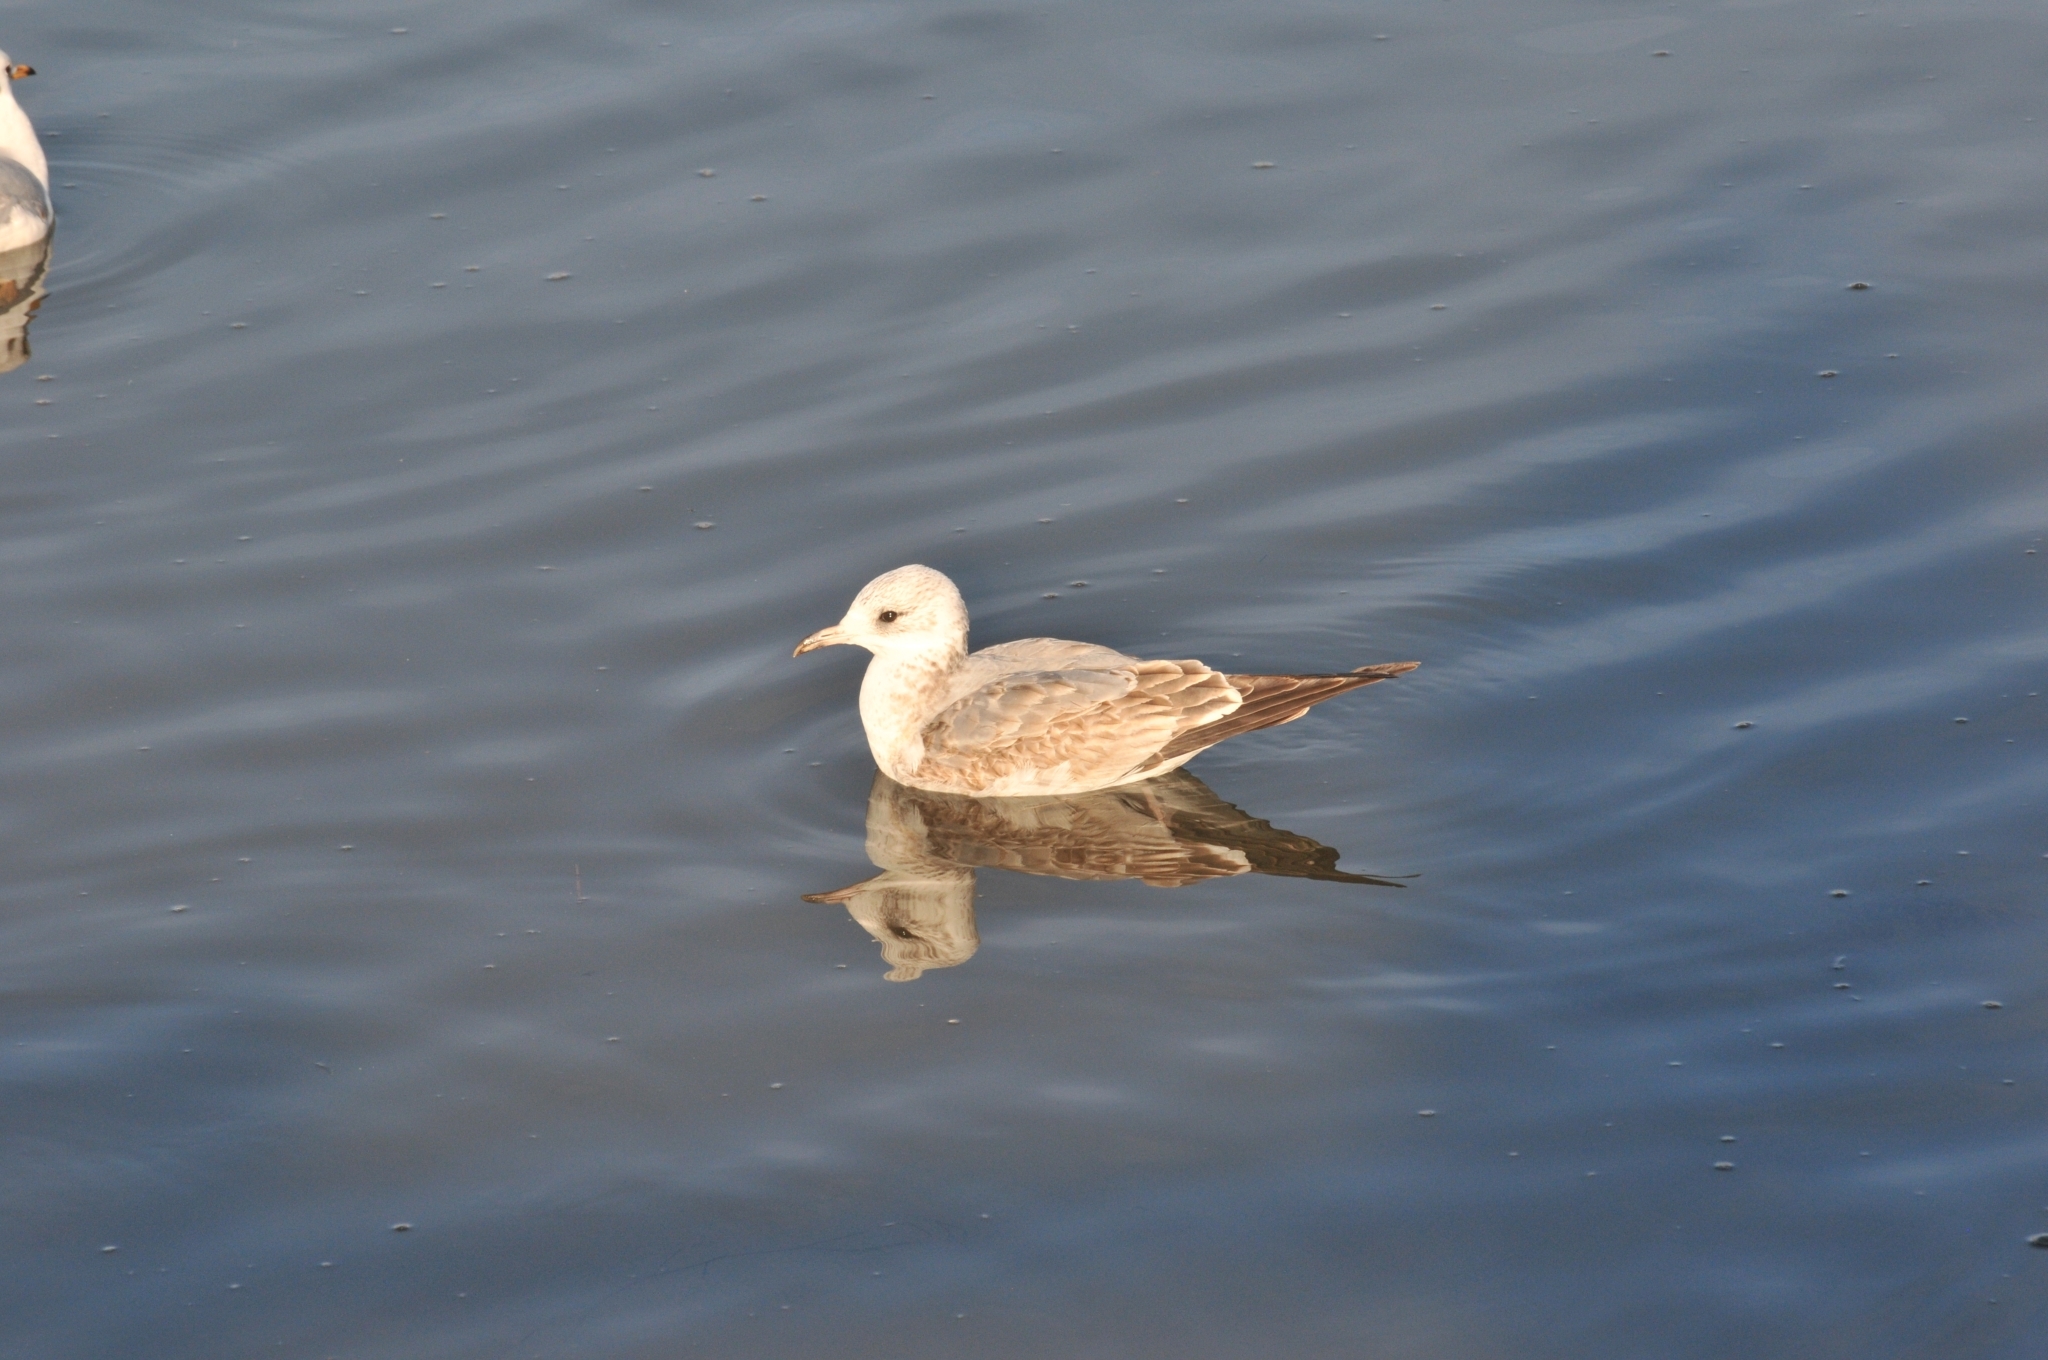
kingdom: Animalia
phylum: Chordata
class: Aves
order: Charadriiformes
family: Laridae
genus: Larus
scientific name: Larus canus
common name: Mew gull
